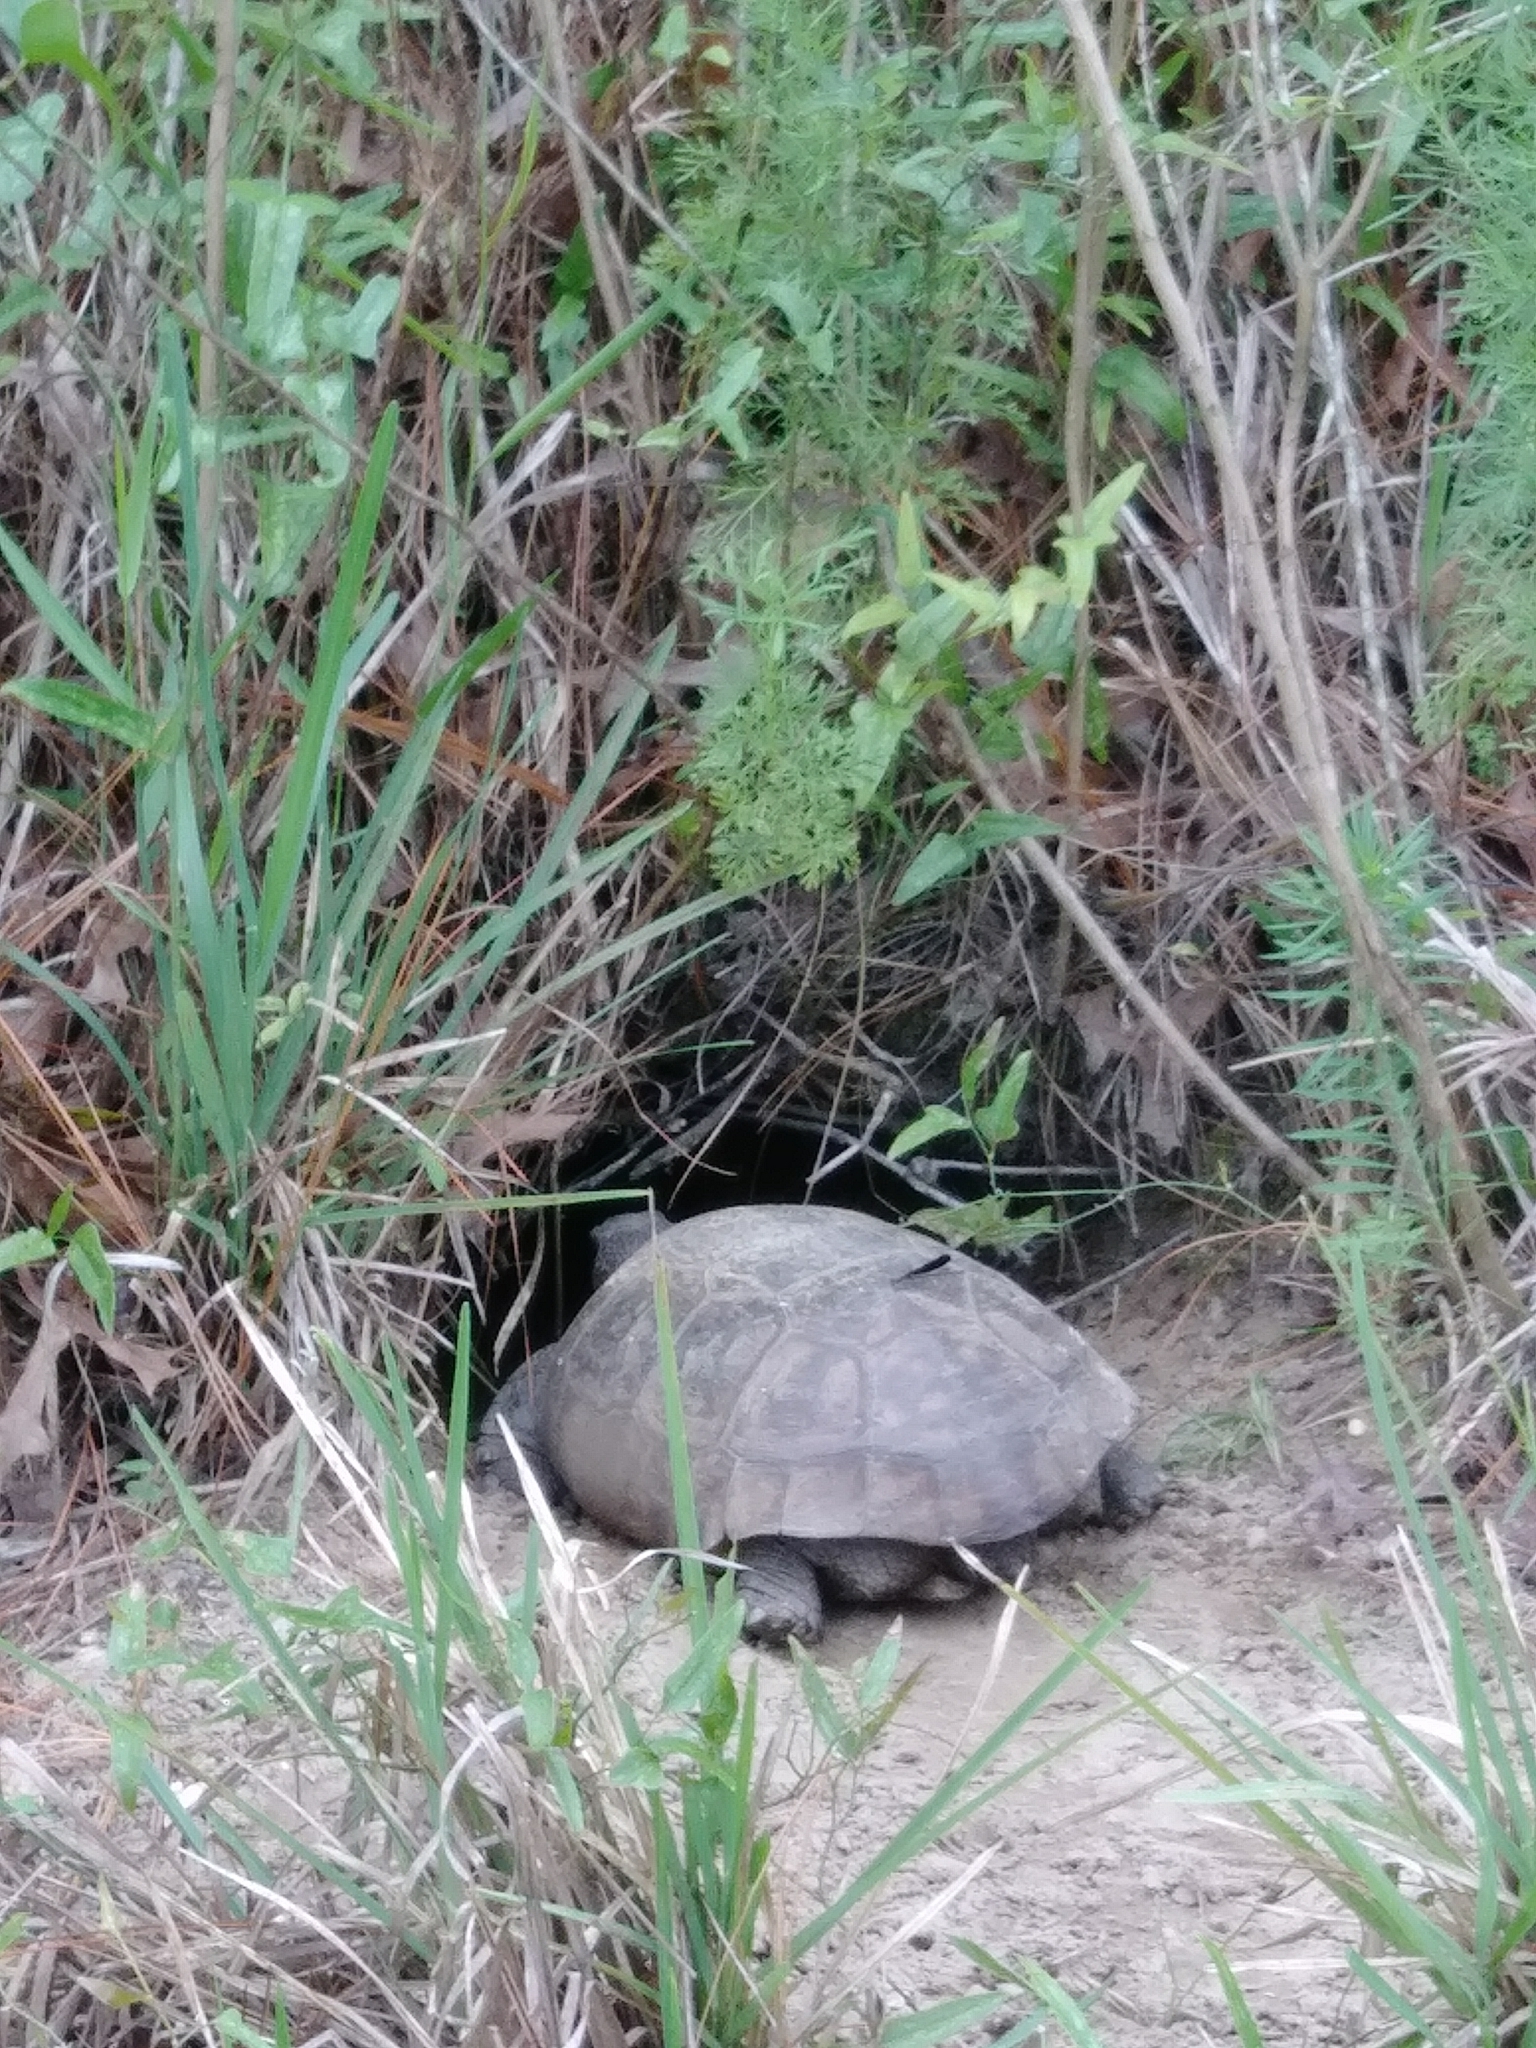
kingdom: Animalia
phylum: Chordata
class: Testudines
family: Testudinidae
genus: Gopherus
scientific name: Gopherus polyphemus
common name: Florida gopher tortoise
